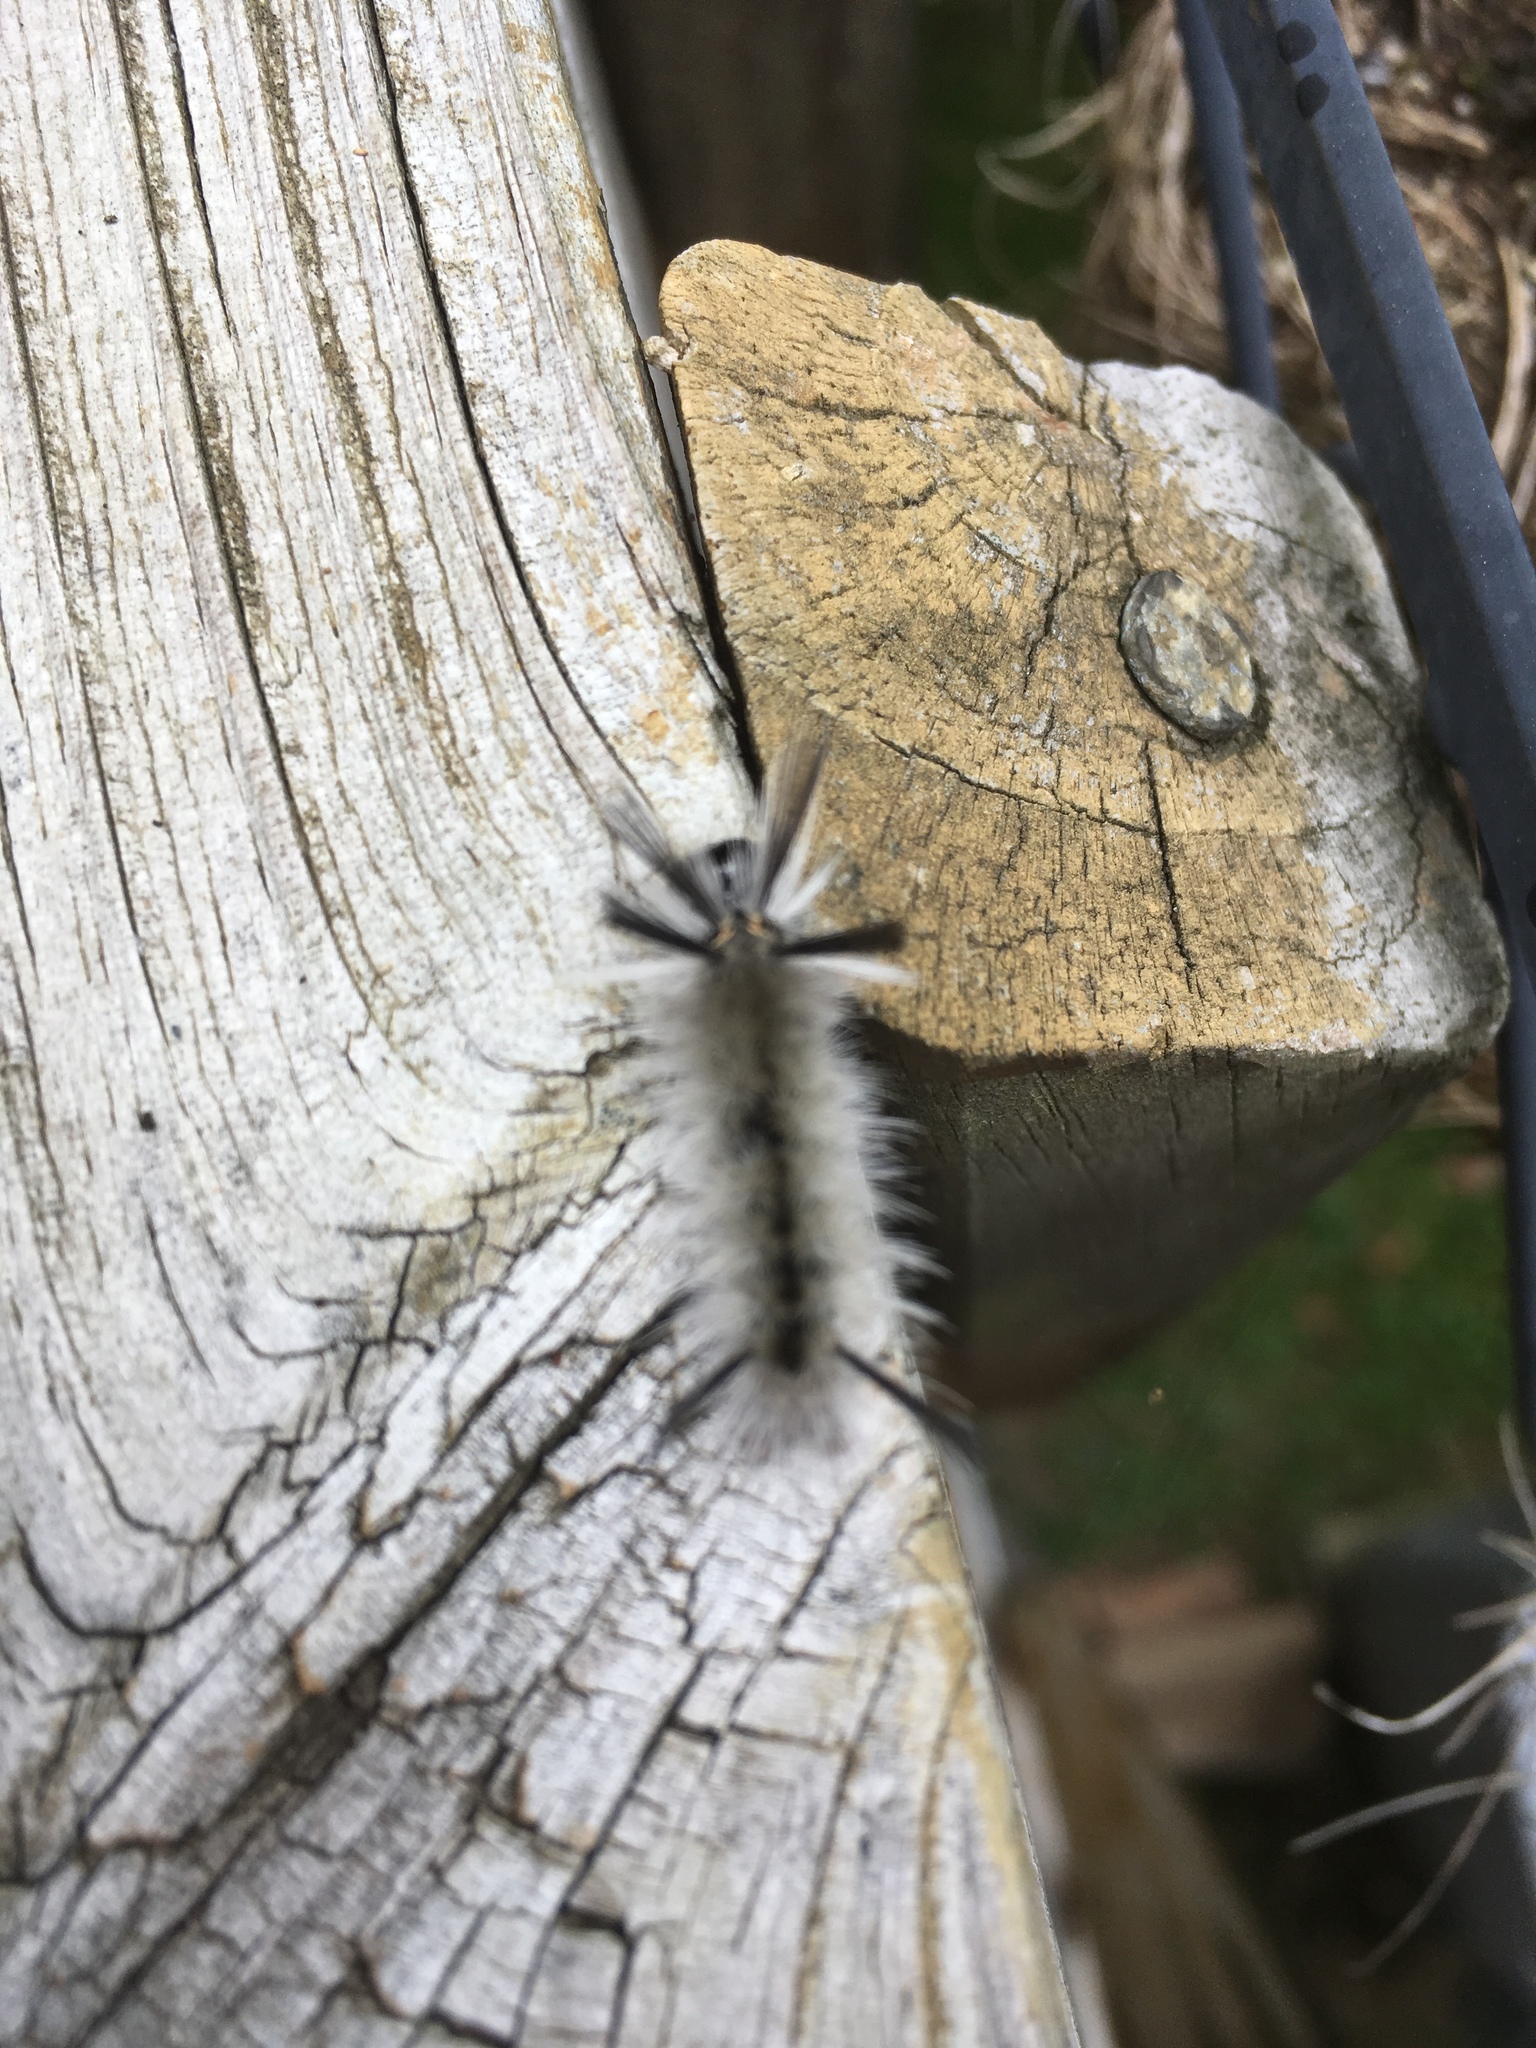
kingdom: Animalia
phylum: Arthropoda
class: Insecta
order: Lepidoptera
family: Erebidae
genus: Halysidota
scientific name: Halysidota tessellaris
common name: Banded tussock moth
